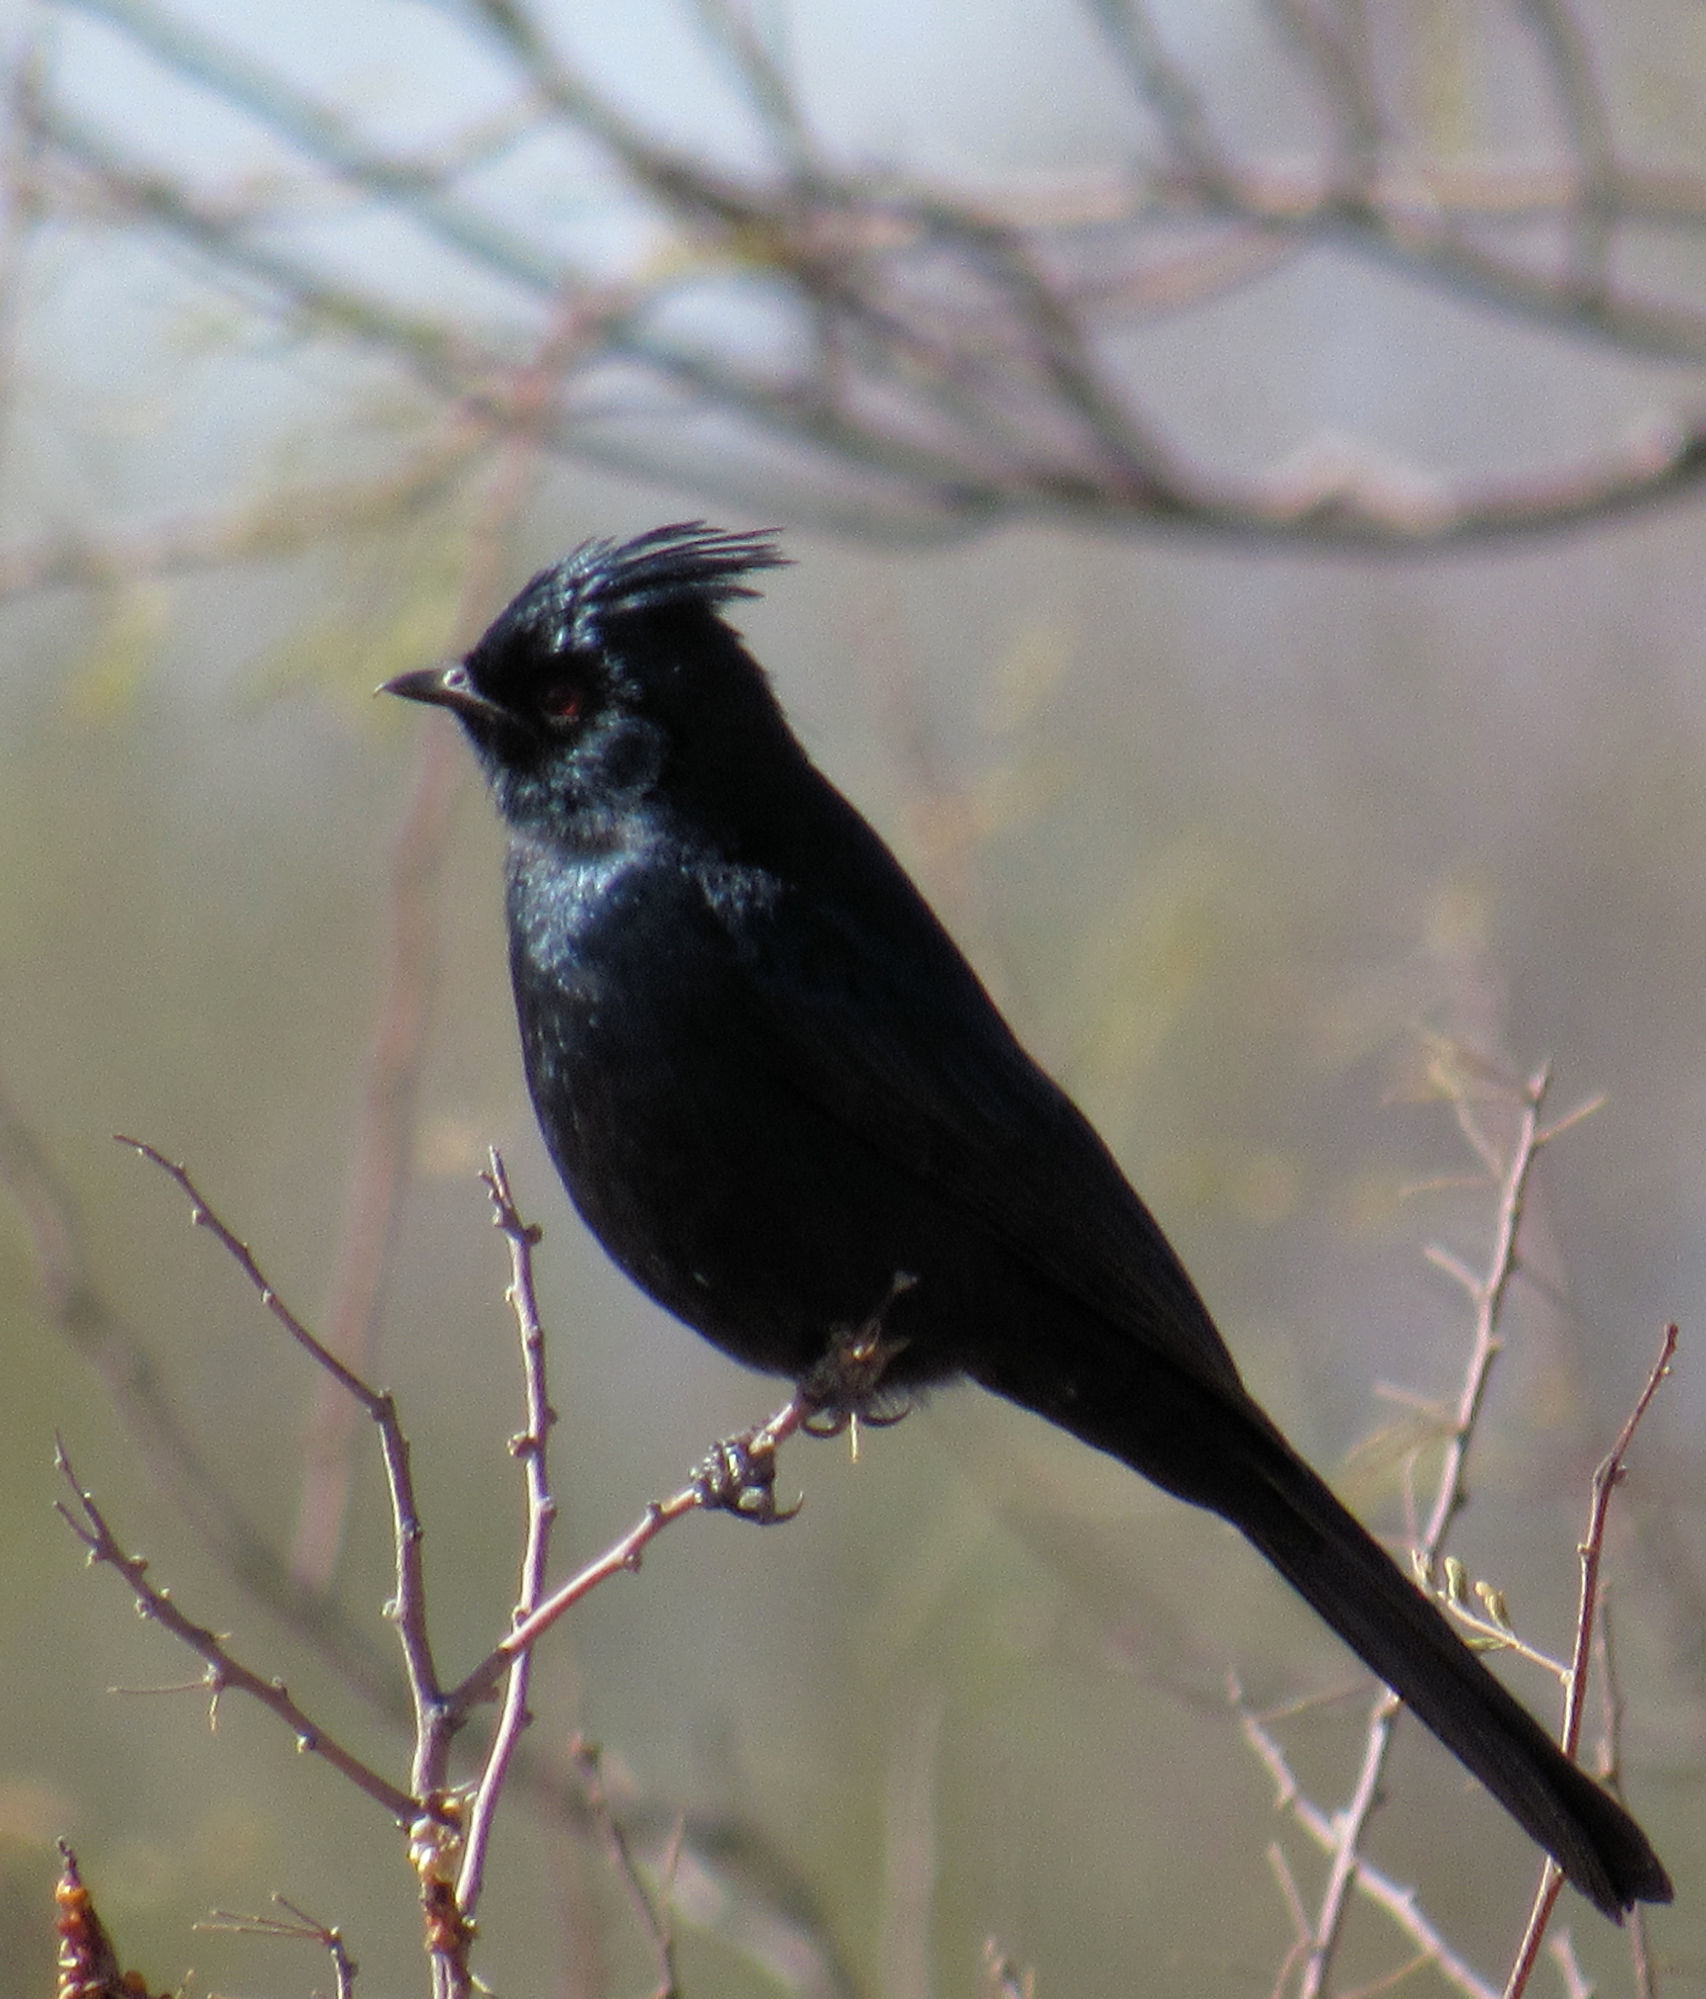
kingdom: Animalia
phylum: Chordata
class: Aves
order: Passeriformes
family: Ptilogonatidae
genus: Phainopepla
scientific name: Phainopepla nitens
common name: Phainopepla
